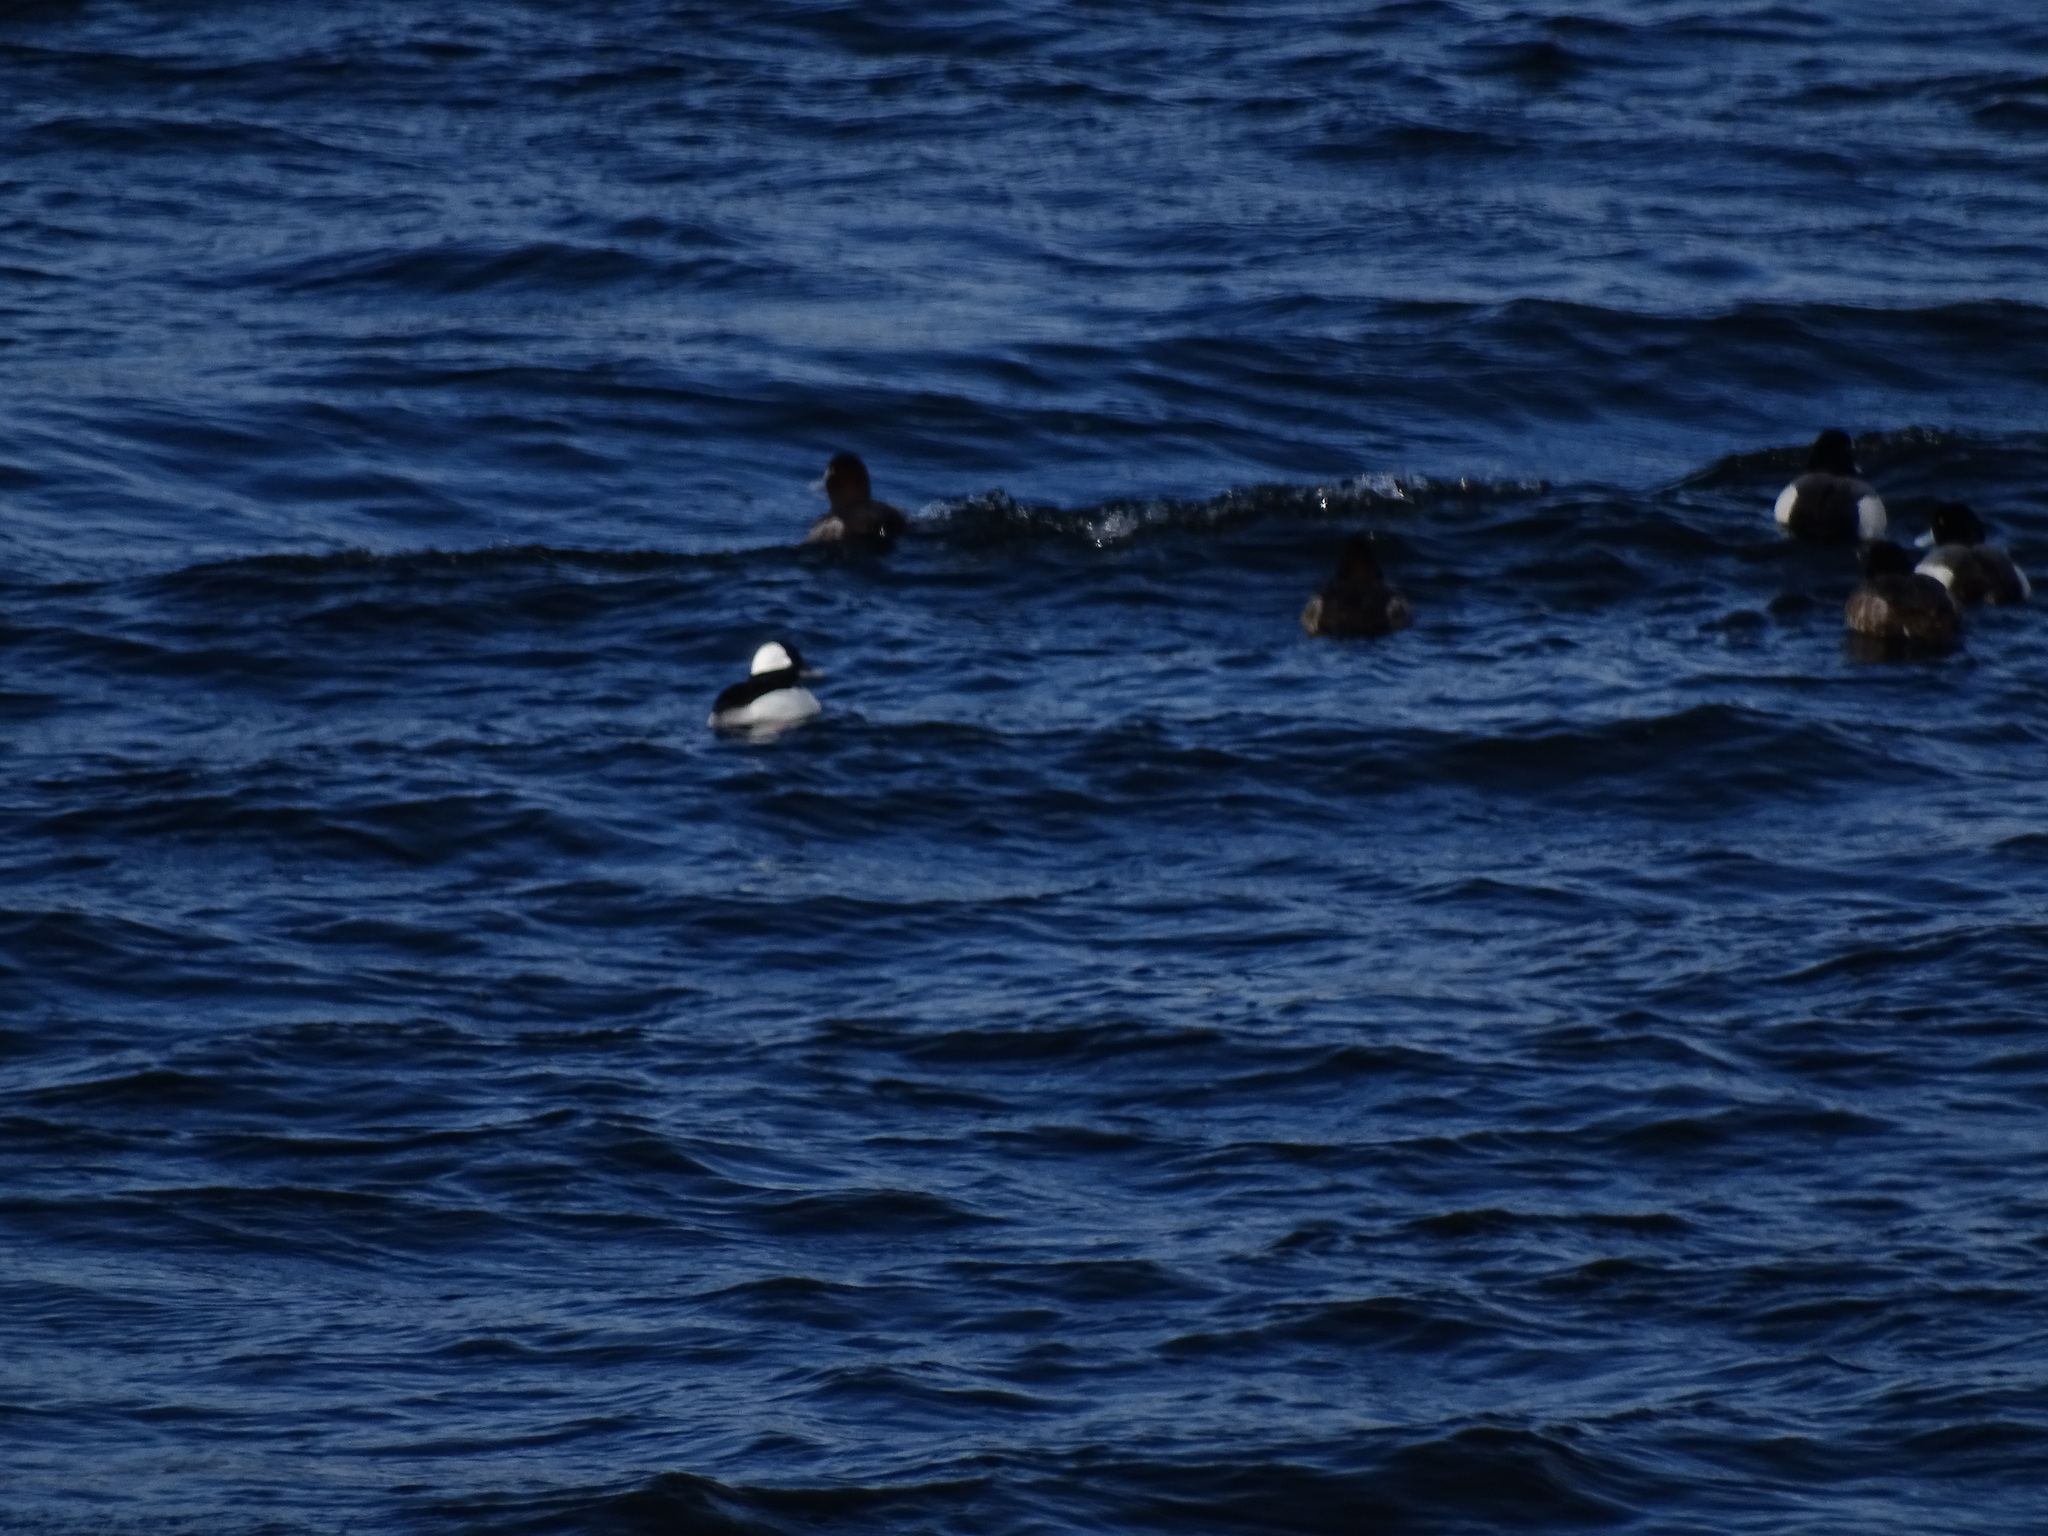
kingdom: Animalia
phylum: Chordata
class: Aves
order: Anseriformes
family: Anatidae
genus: Bucephala
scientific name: Bucephala albeola
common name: Bufflehead
